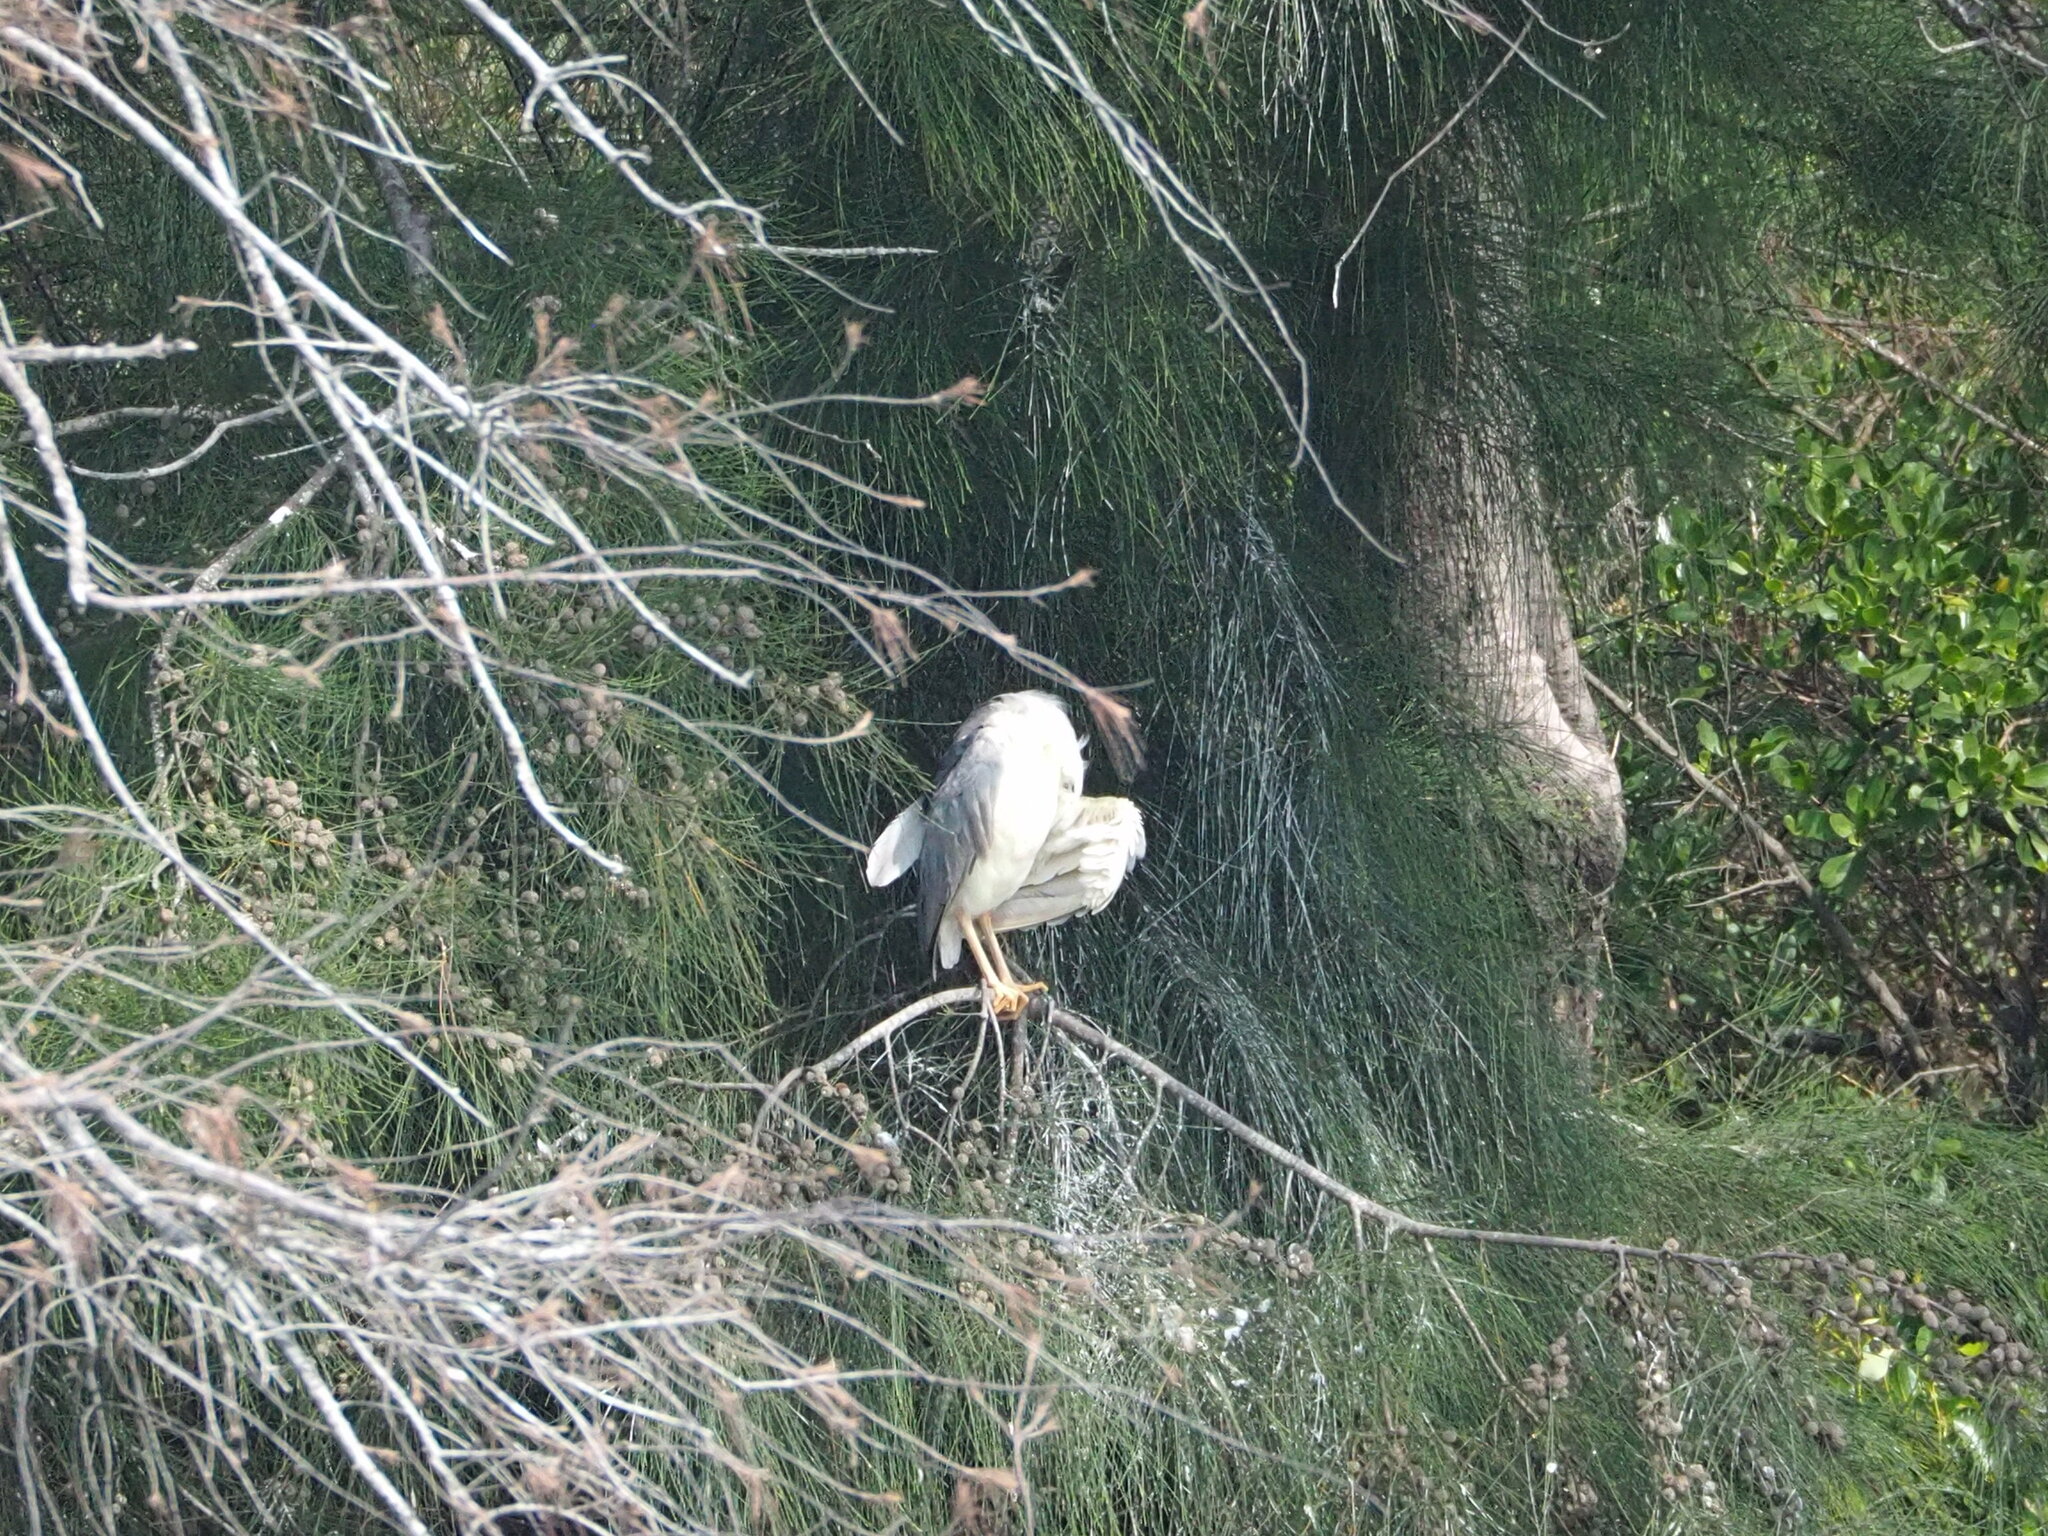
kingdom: Animalia
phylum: Chordata
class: Aves
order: Pelecaniformes
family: Ardeidae
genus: Nycticorax
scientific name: Nycticorax nycticorax
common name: Black-crowned night heron
